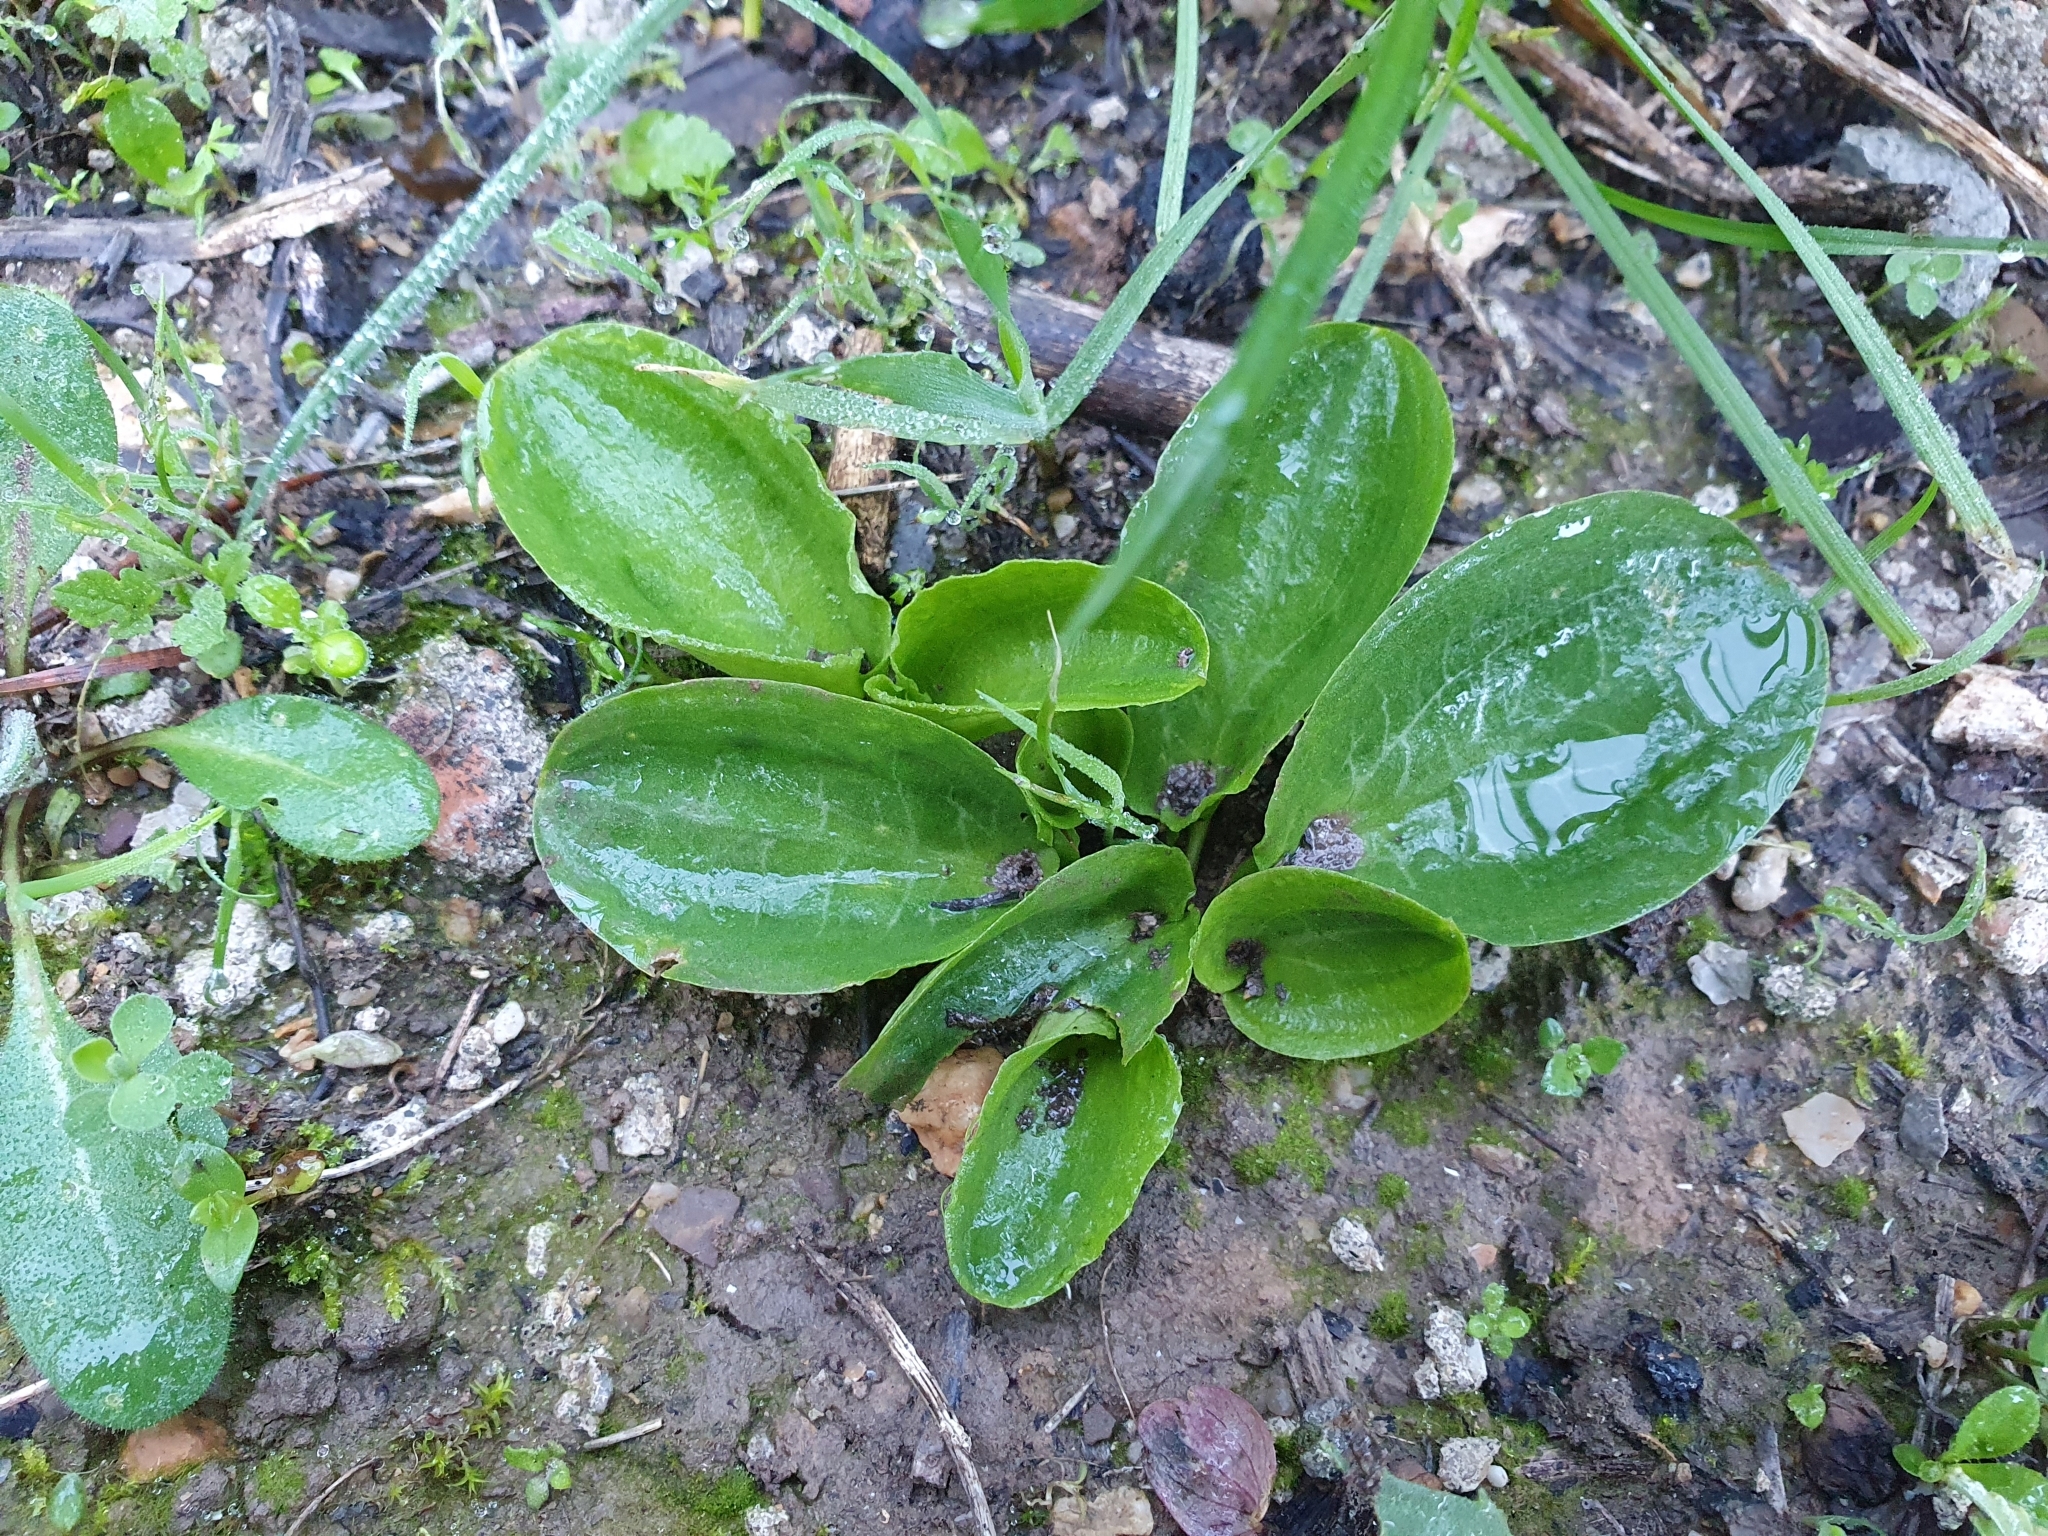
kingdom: Plantae
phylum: Tracheophyta
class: Liliopsida
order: Alismatales
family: Araceae
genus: Ambrosina
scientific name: Ambrosina bassii
